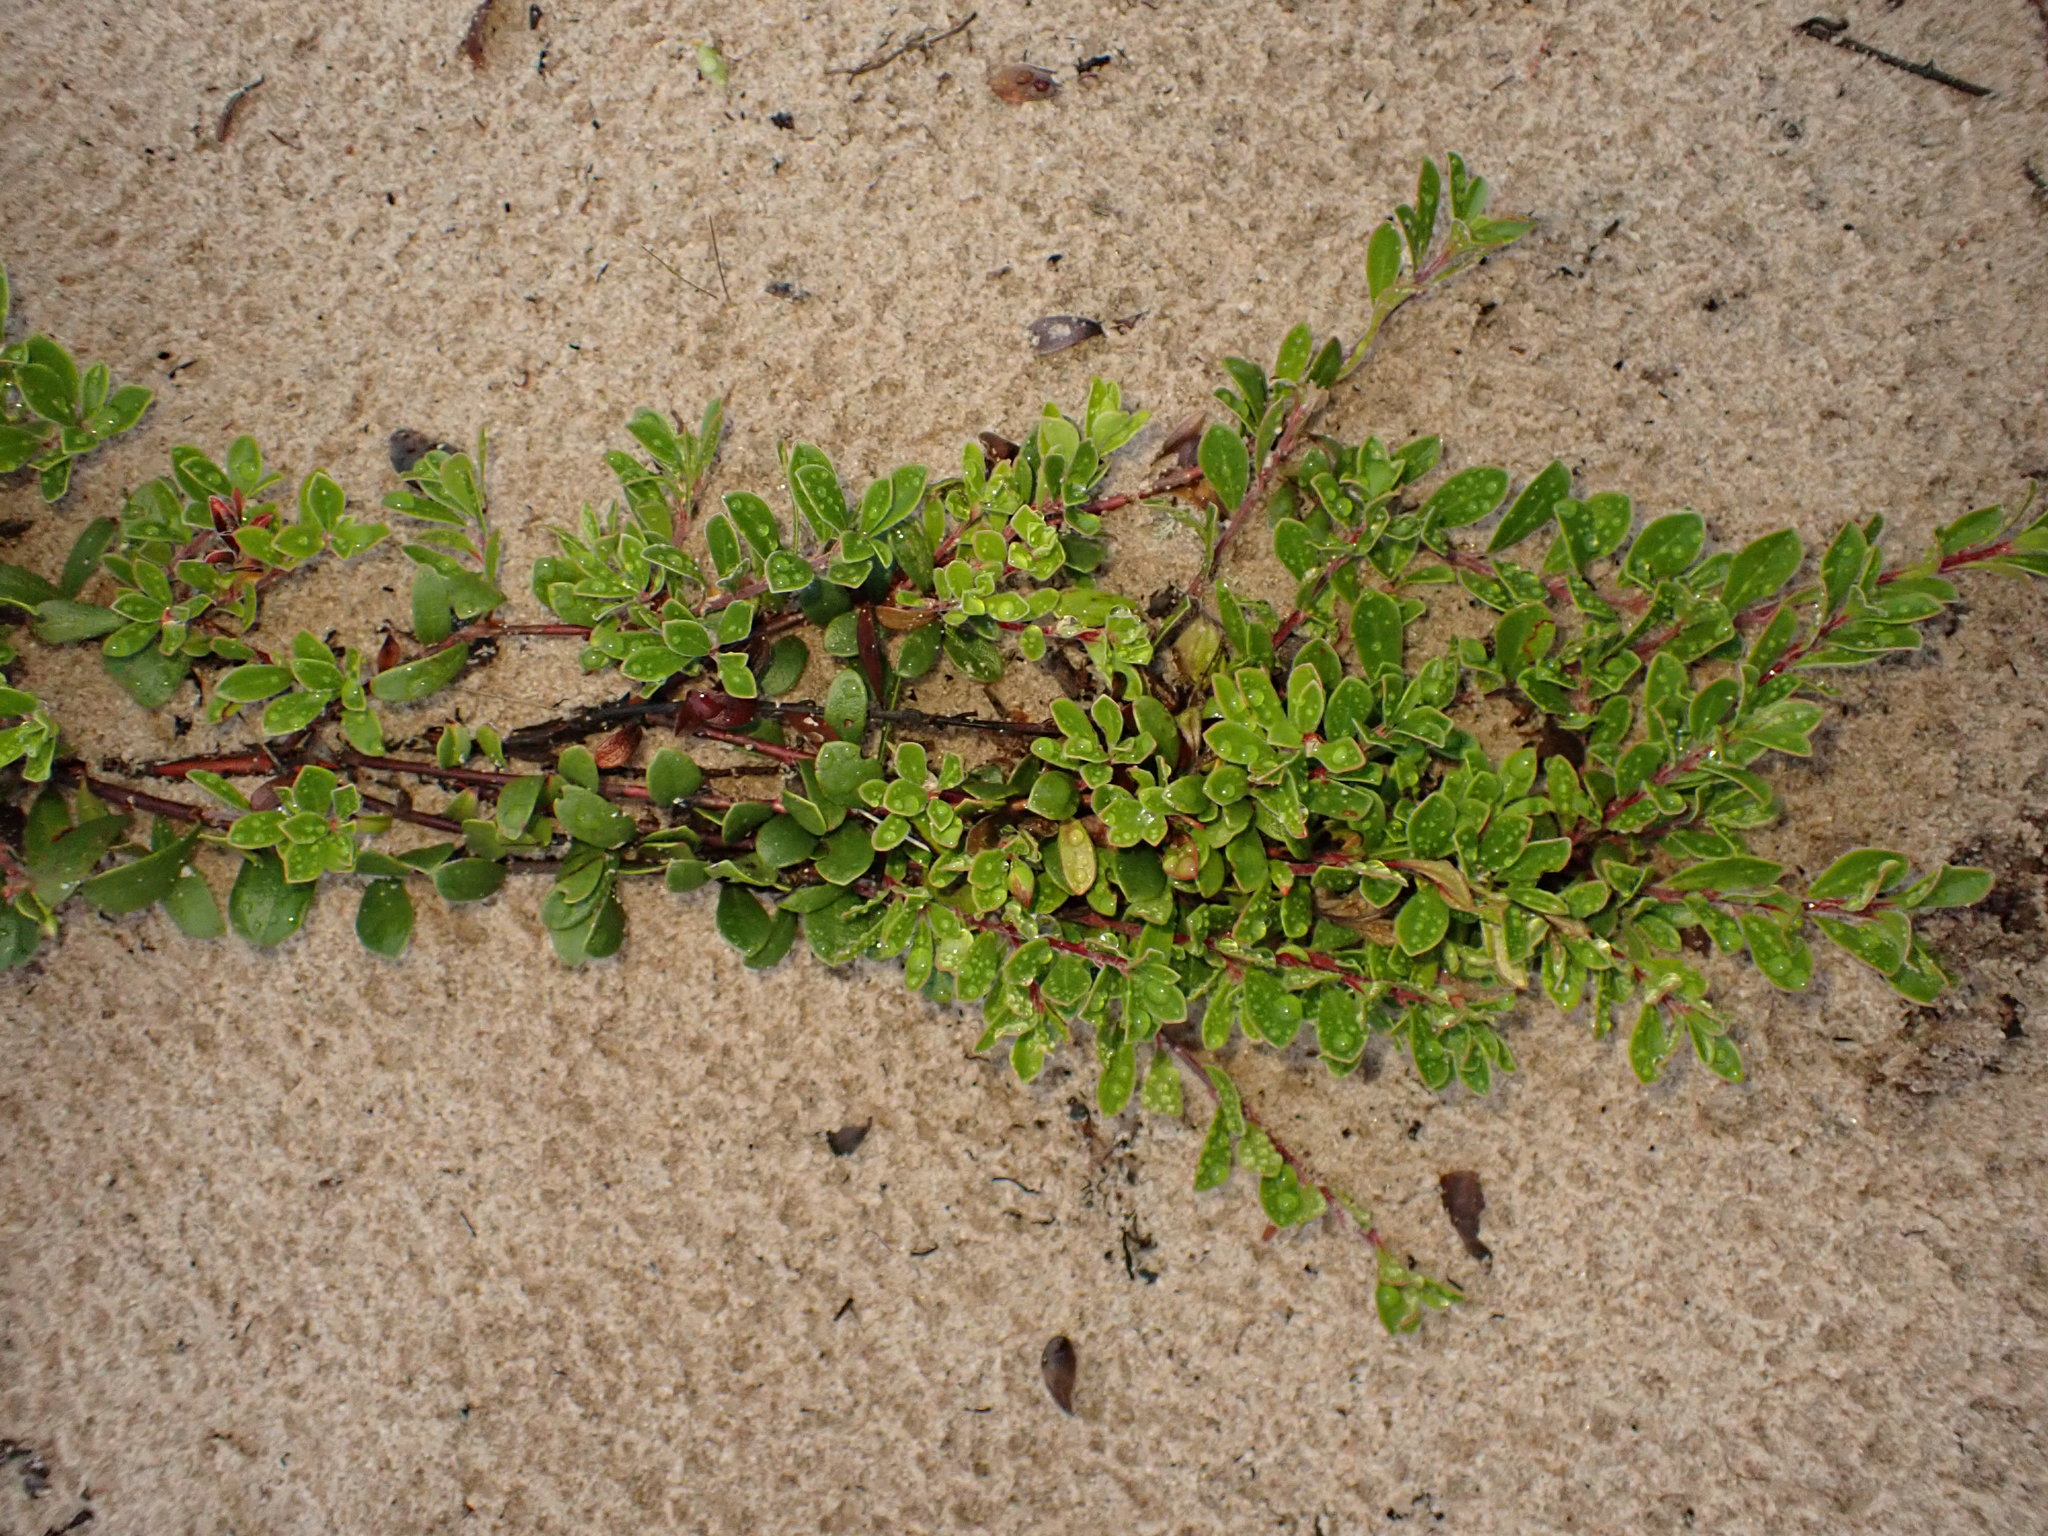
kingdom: Plantae
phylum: Tracheophyta
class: Magnoliopsida
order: Ericales
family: Ericaceae
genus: Arctostaphylos
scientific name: Arctostaphylos uva-ursi
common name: Bearberry
